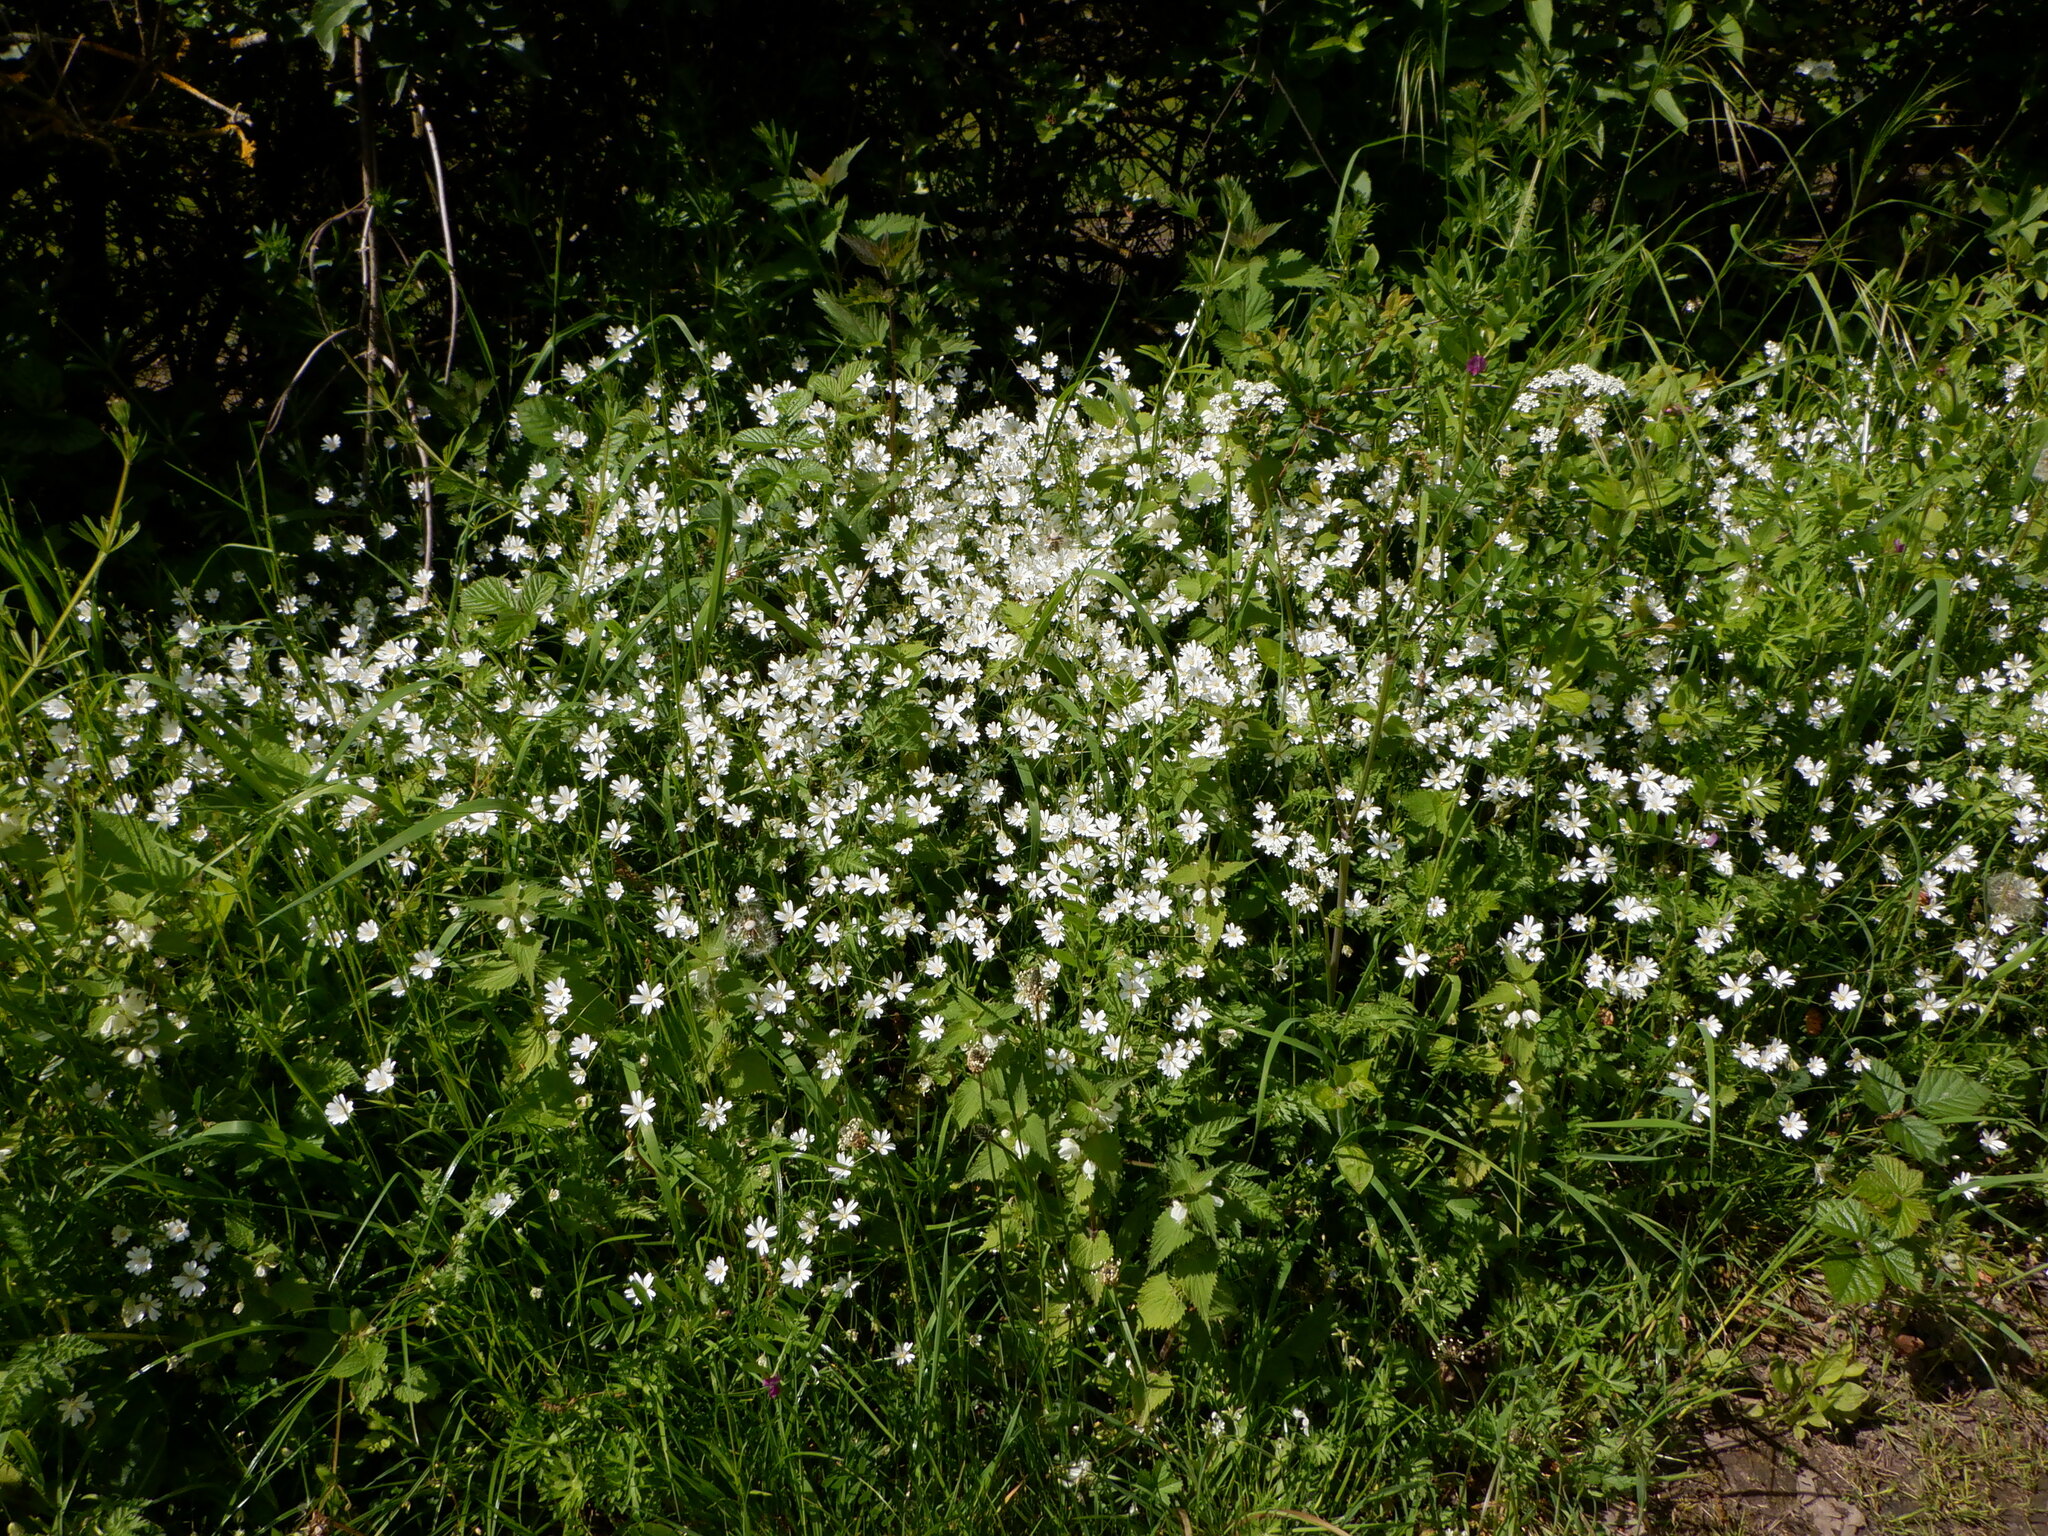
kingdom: Plantae
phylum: Tracheophyta
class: Magnoliopsida
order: Caryophyllales
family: Caryophyllaceae
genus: Rabelera
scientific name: Rabelera holostea
